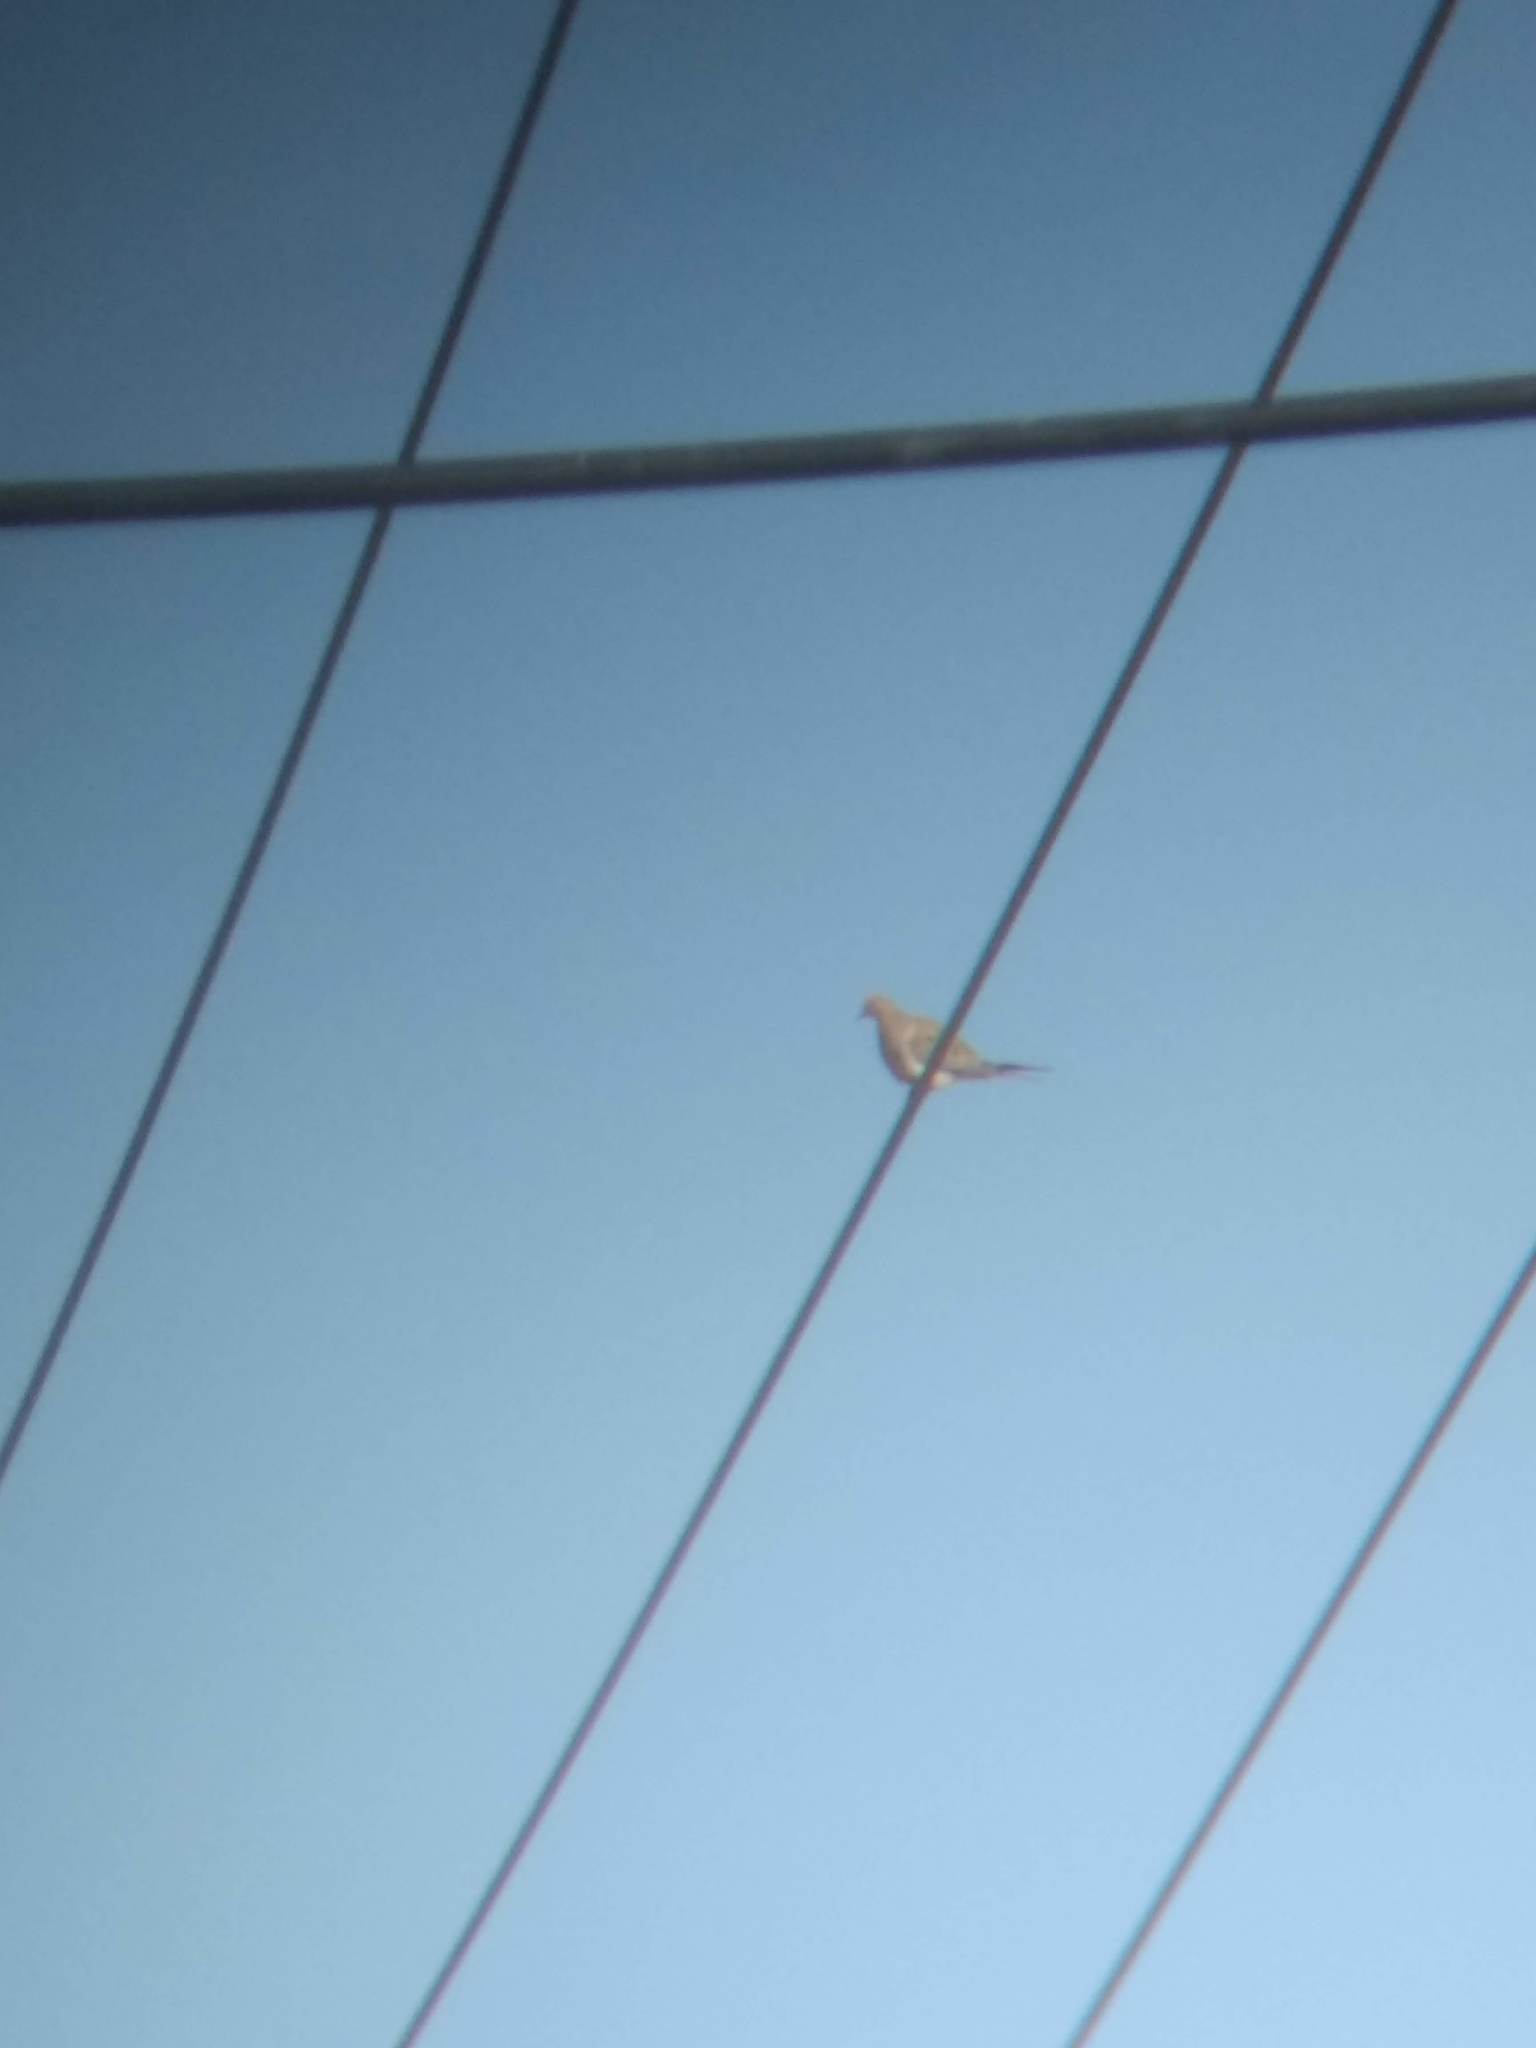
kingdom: Animalia
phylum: Chordata
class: Aves
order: Columbiformes
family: Columbidae
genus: Zenaida
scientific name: Zenaida macroura
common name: Mourning dove
